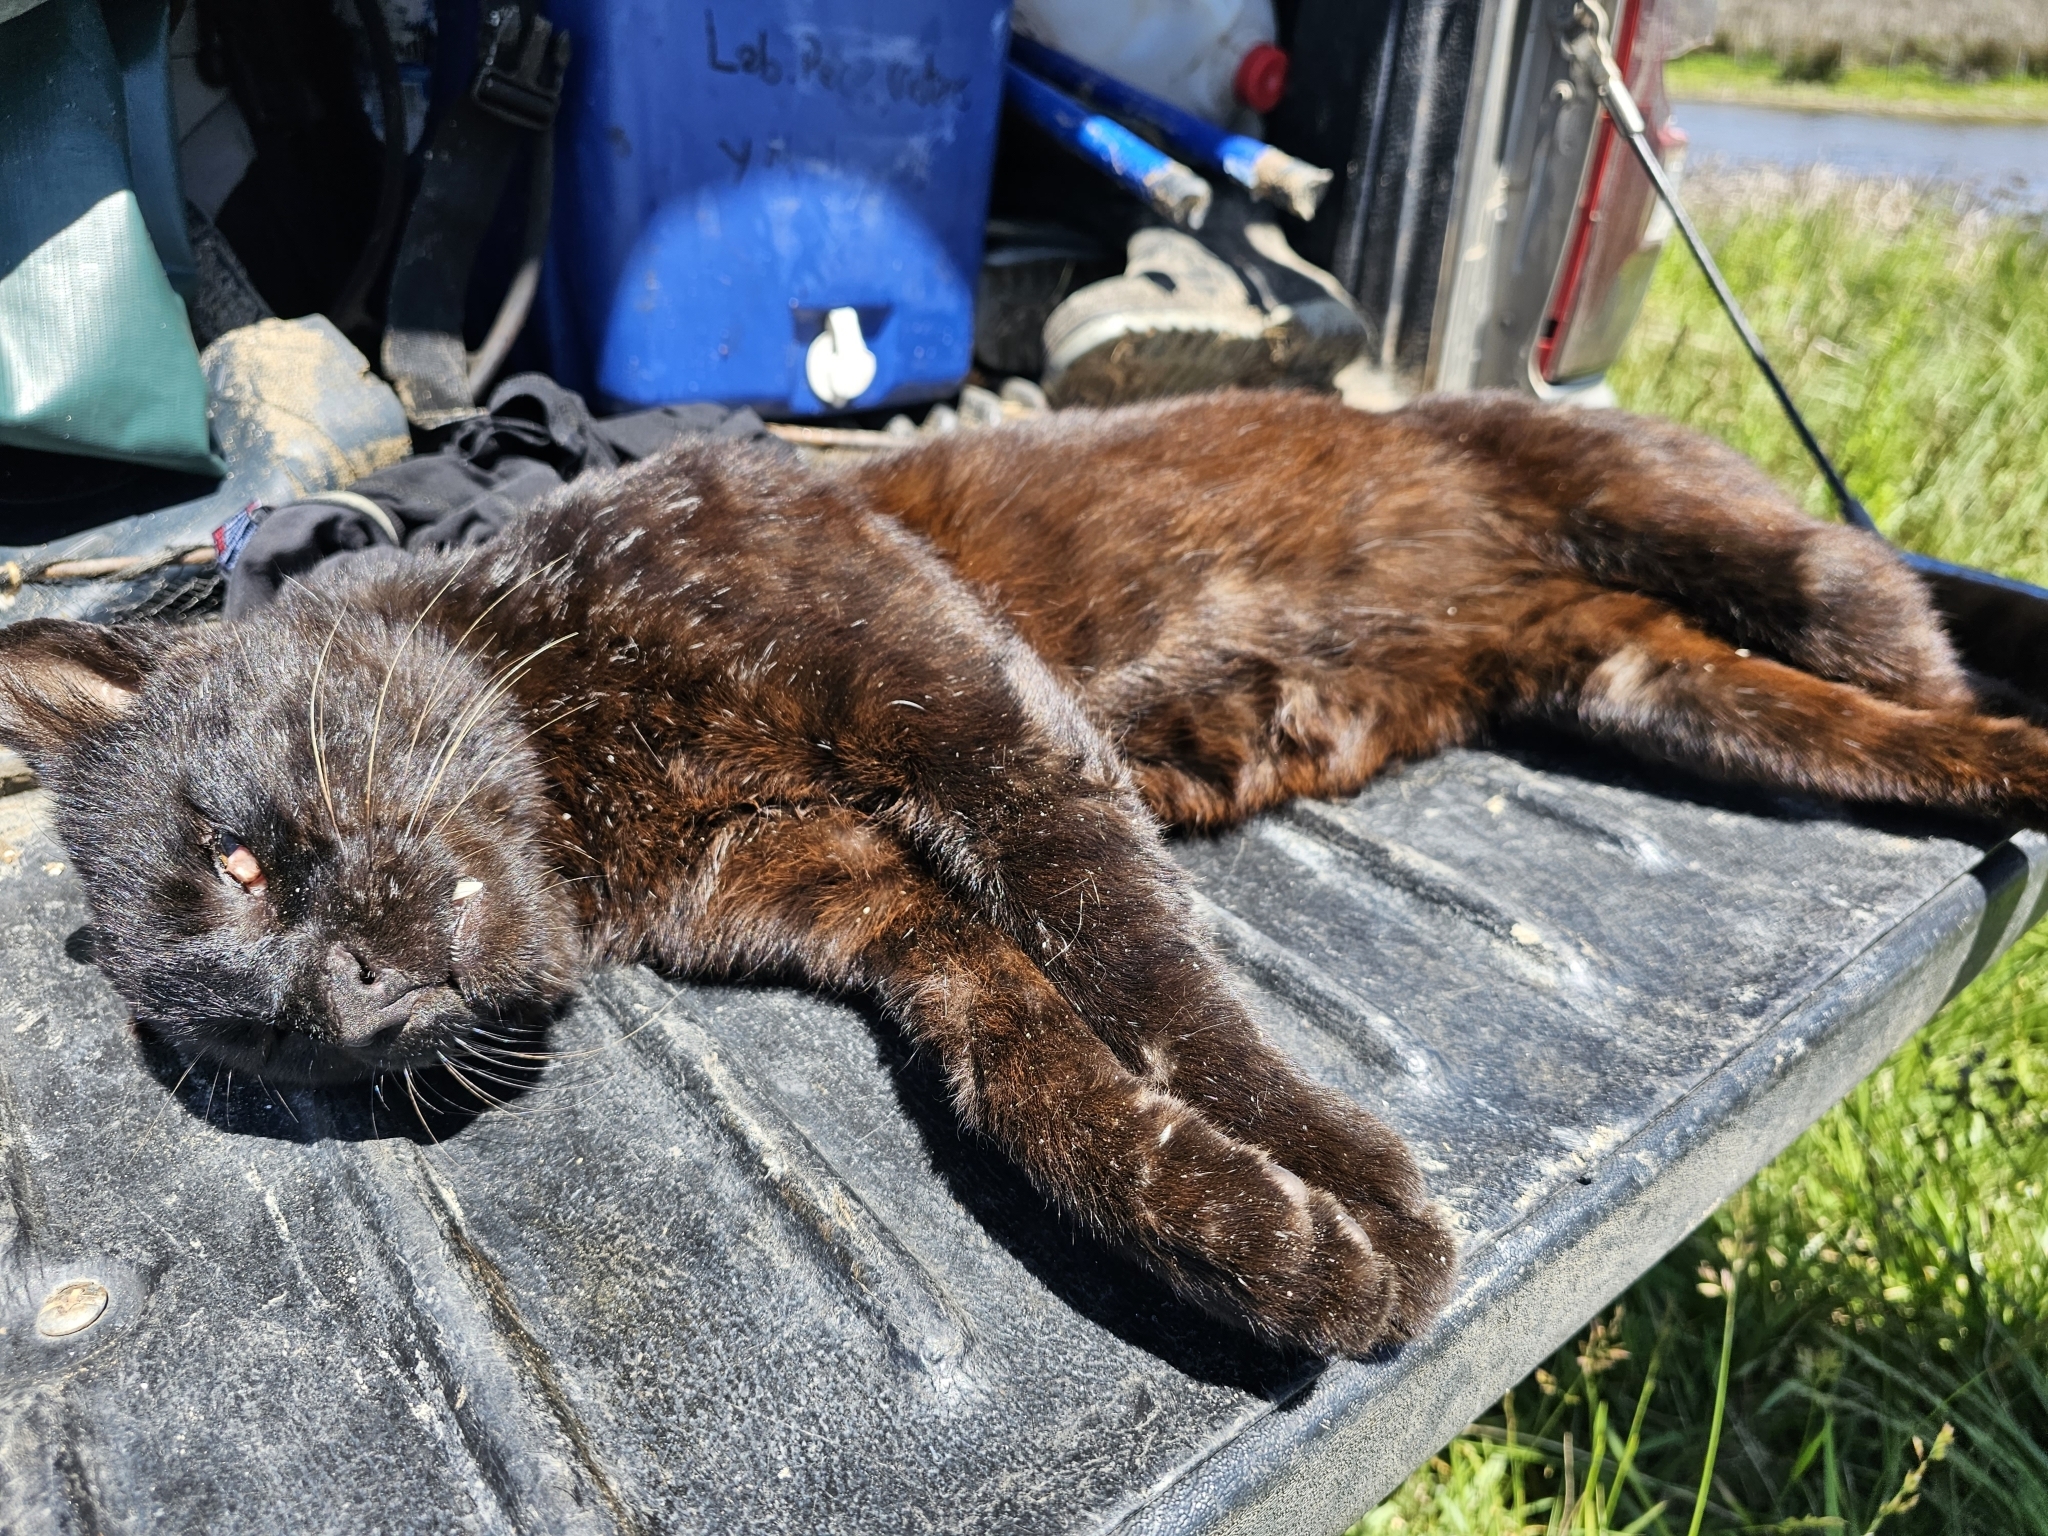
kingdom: Animalia
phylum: Chordata
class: Mammalia
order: Carnivora
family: Felidae
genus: Leopardus
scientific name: Leopardus geoffroyi
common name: Geoffroy's cat
